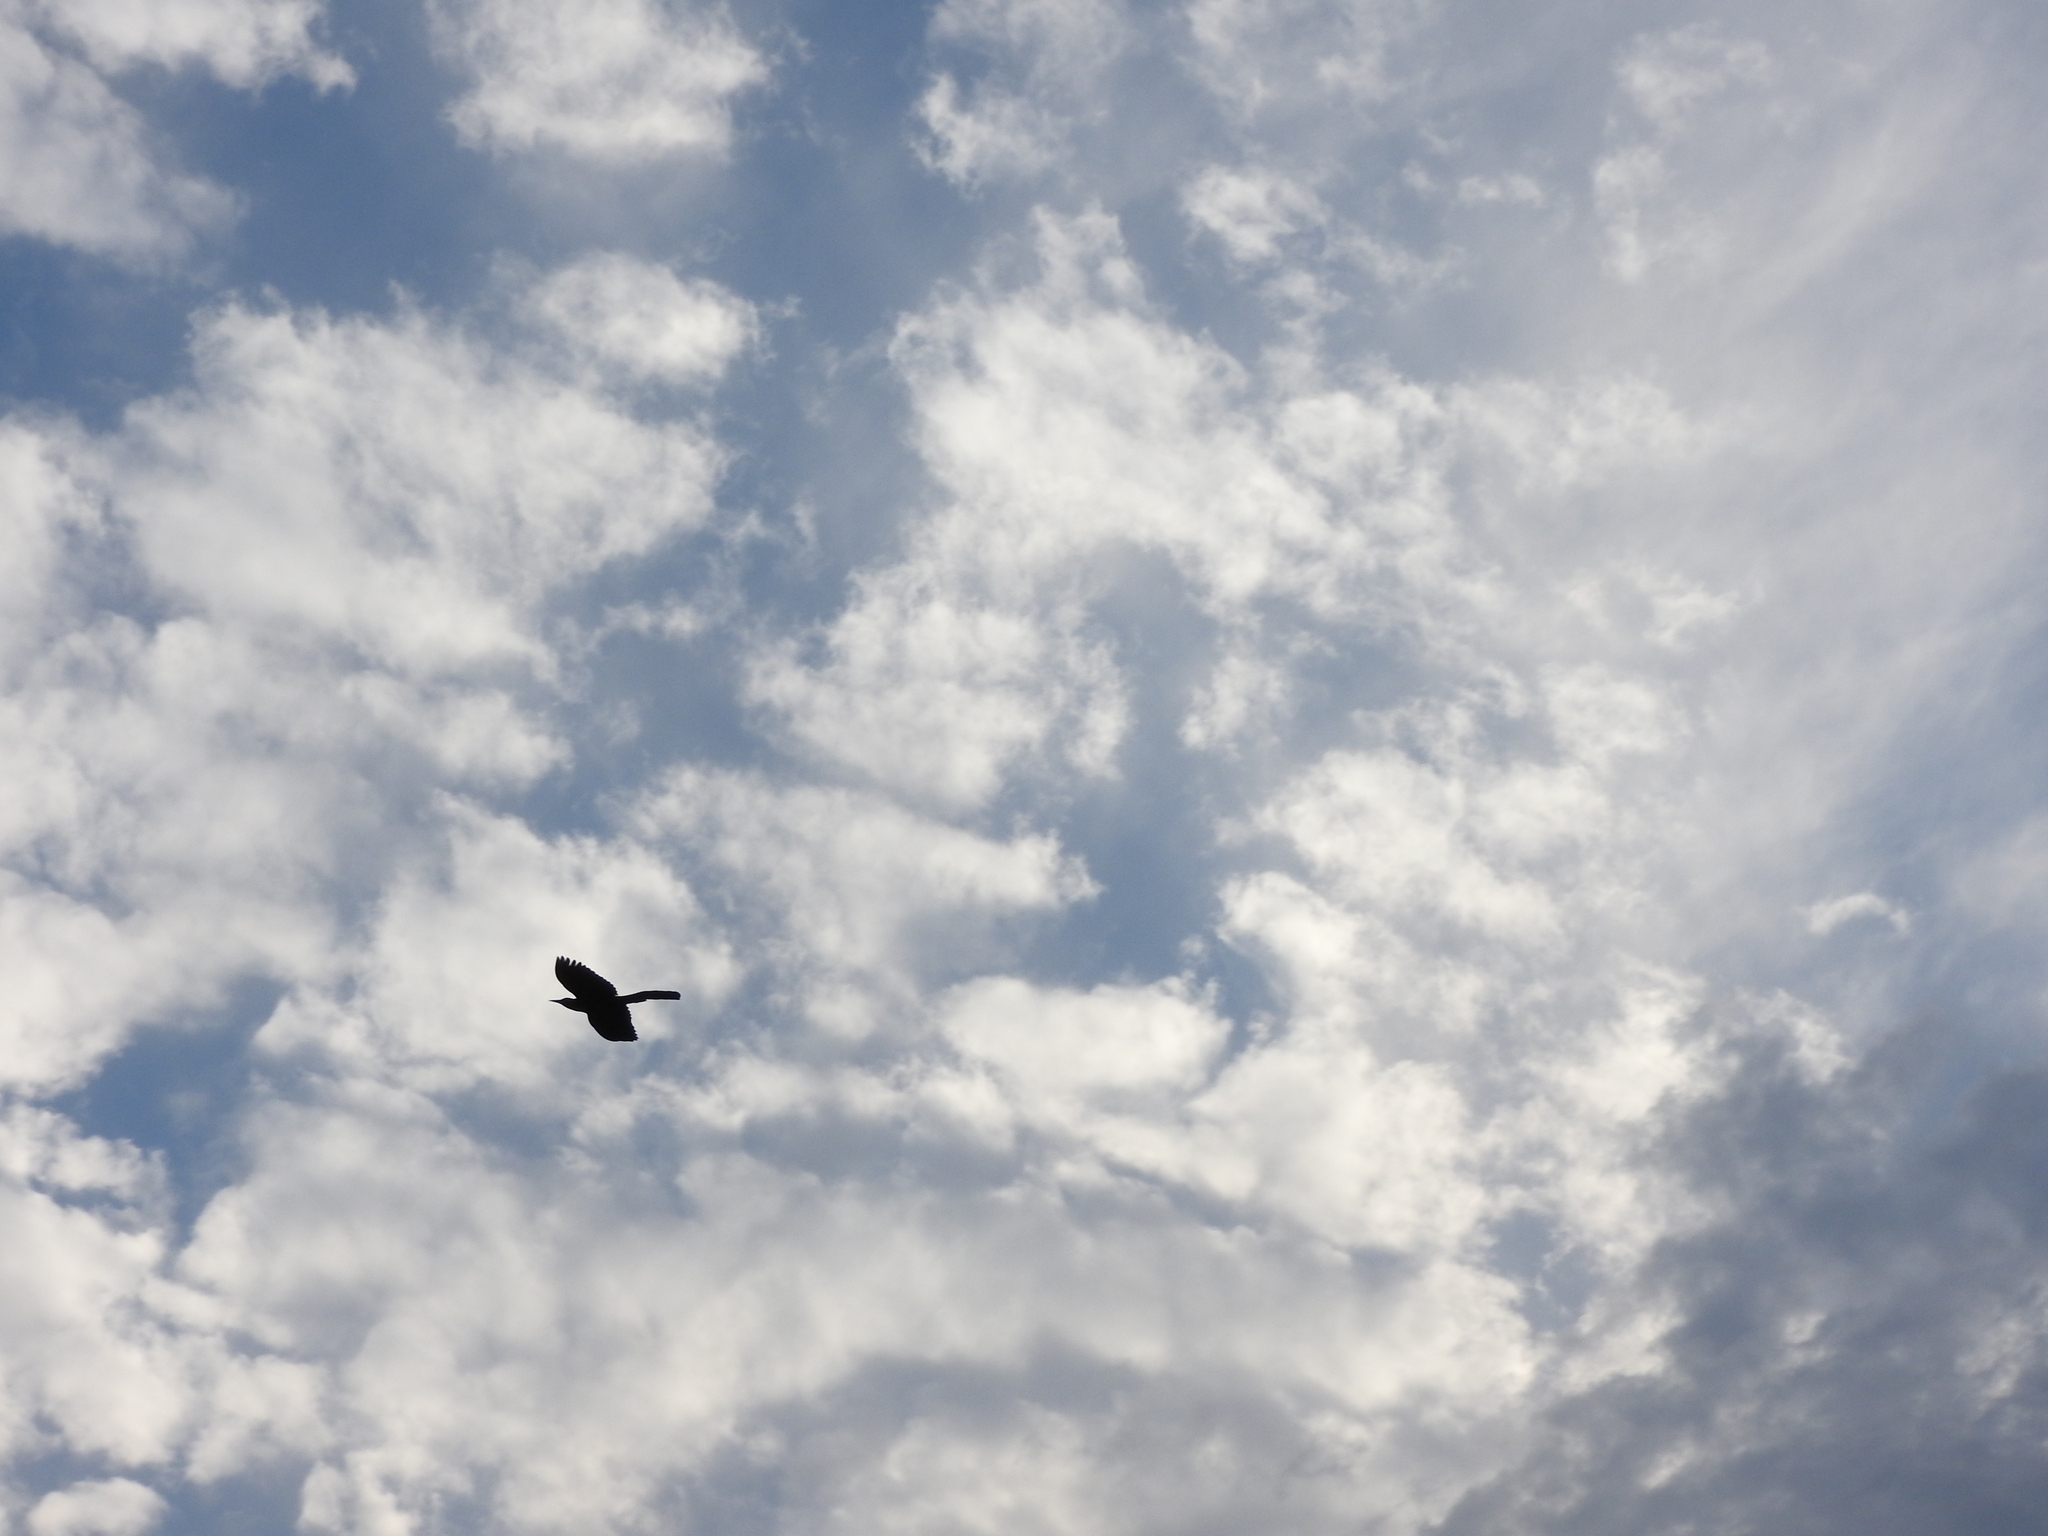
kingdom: Animalia
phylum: Chordata
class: Aves
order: Passeriformes
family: Icteridae
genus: Quiscalus
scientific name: Quiscalus mexicanus
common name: Great-tailed grackle
